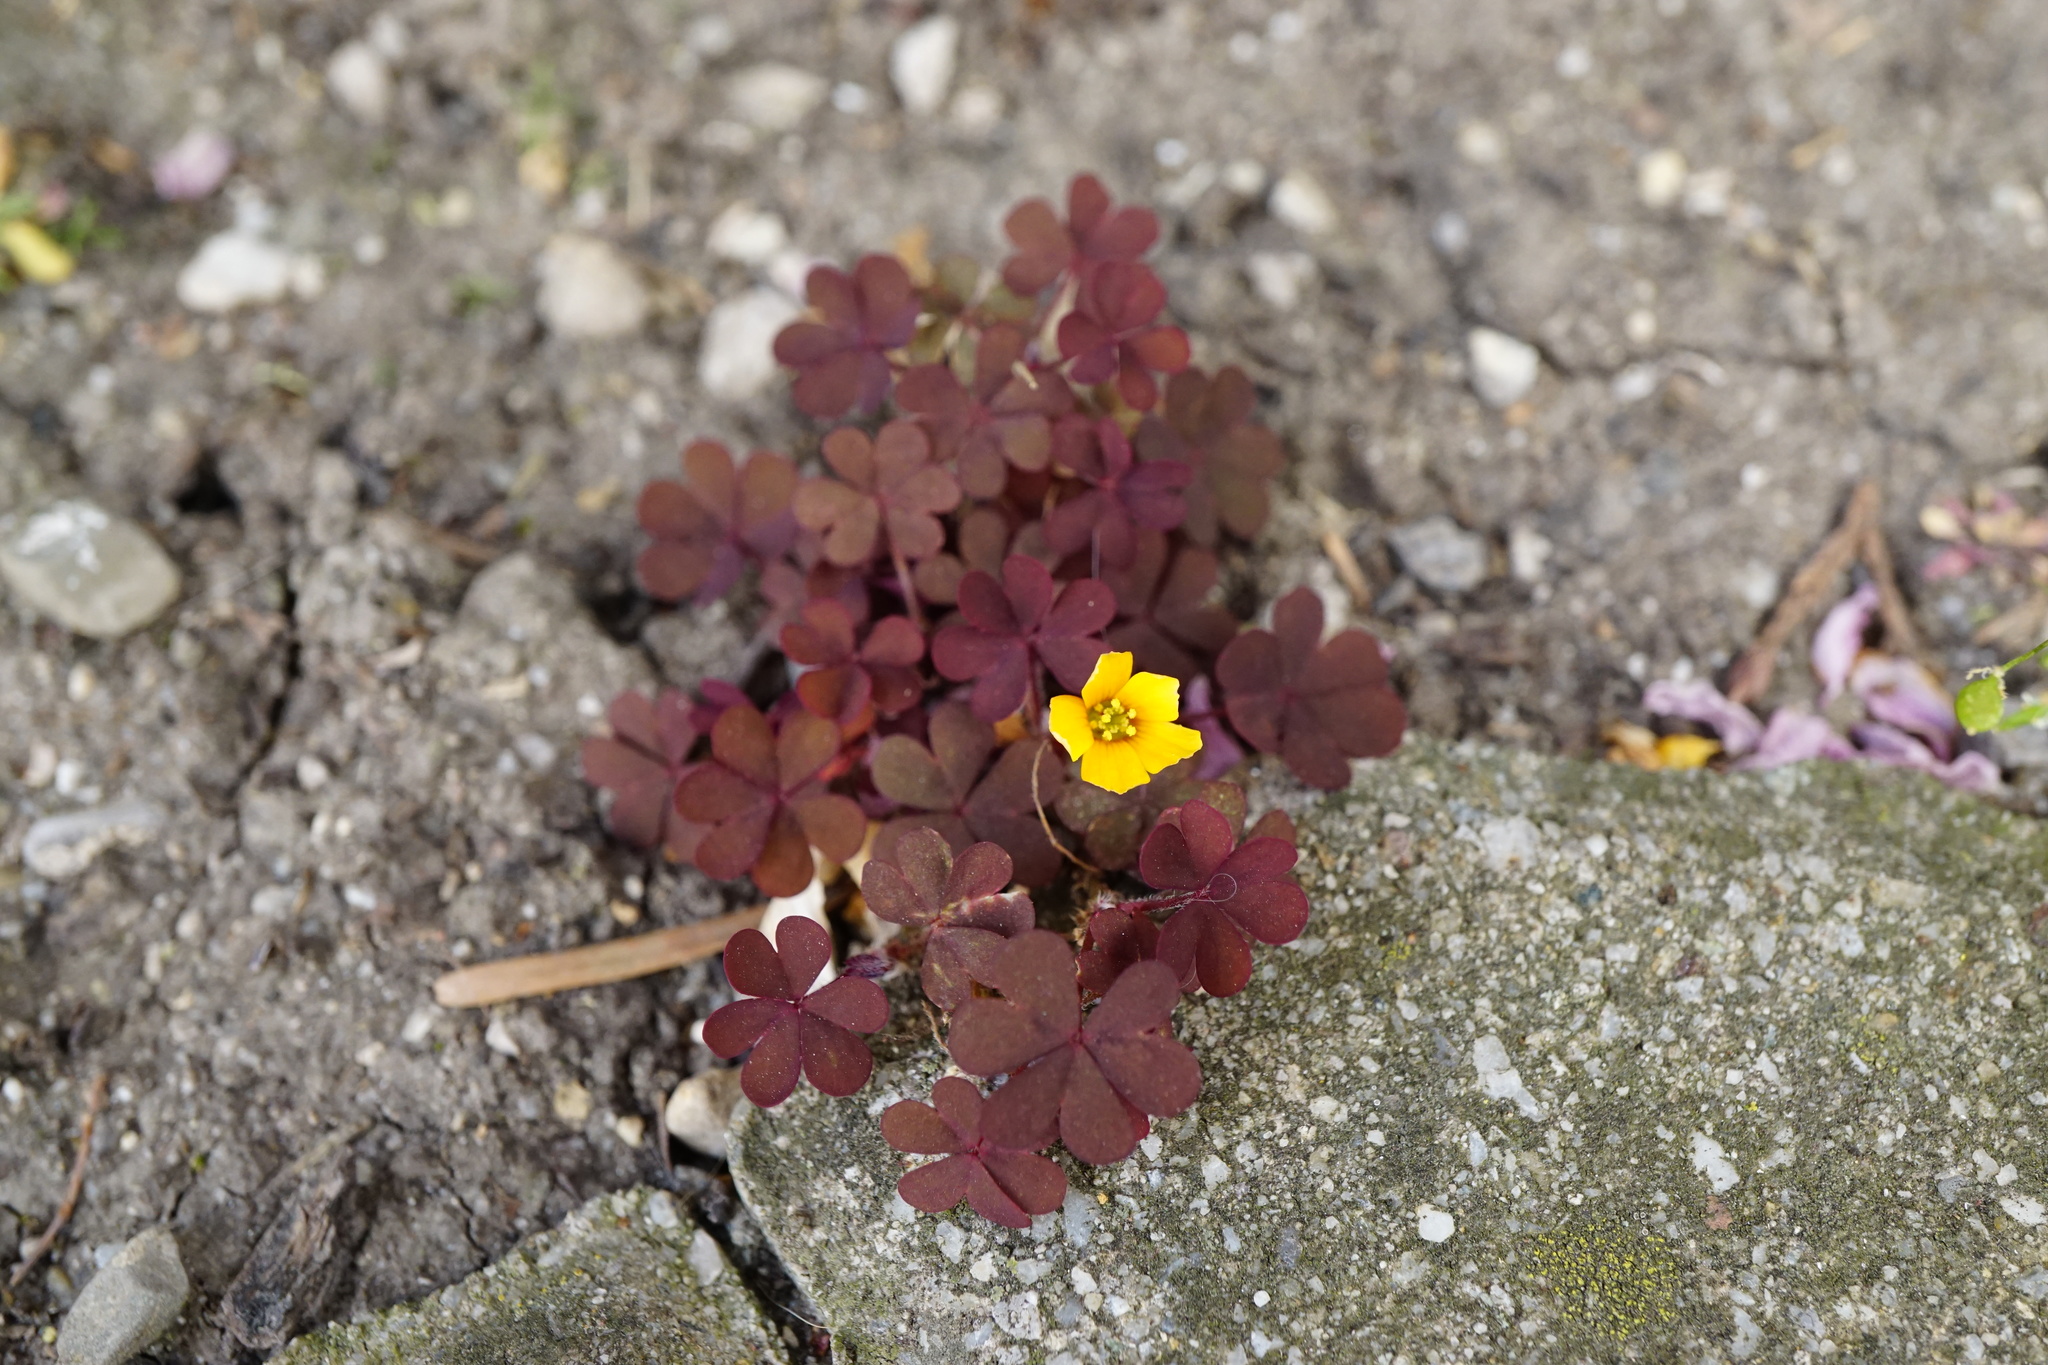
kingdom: Plantae
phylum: Tracheophyta
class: Magnoliopsida
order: Oxalidales
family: Oxalidaceae
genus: Oxalis
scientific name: Oxalis corniculata
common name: Procumbent yellow-sorrel
